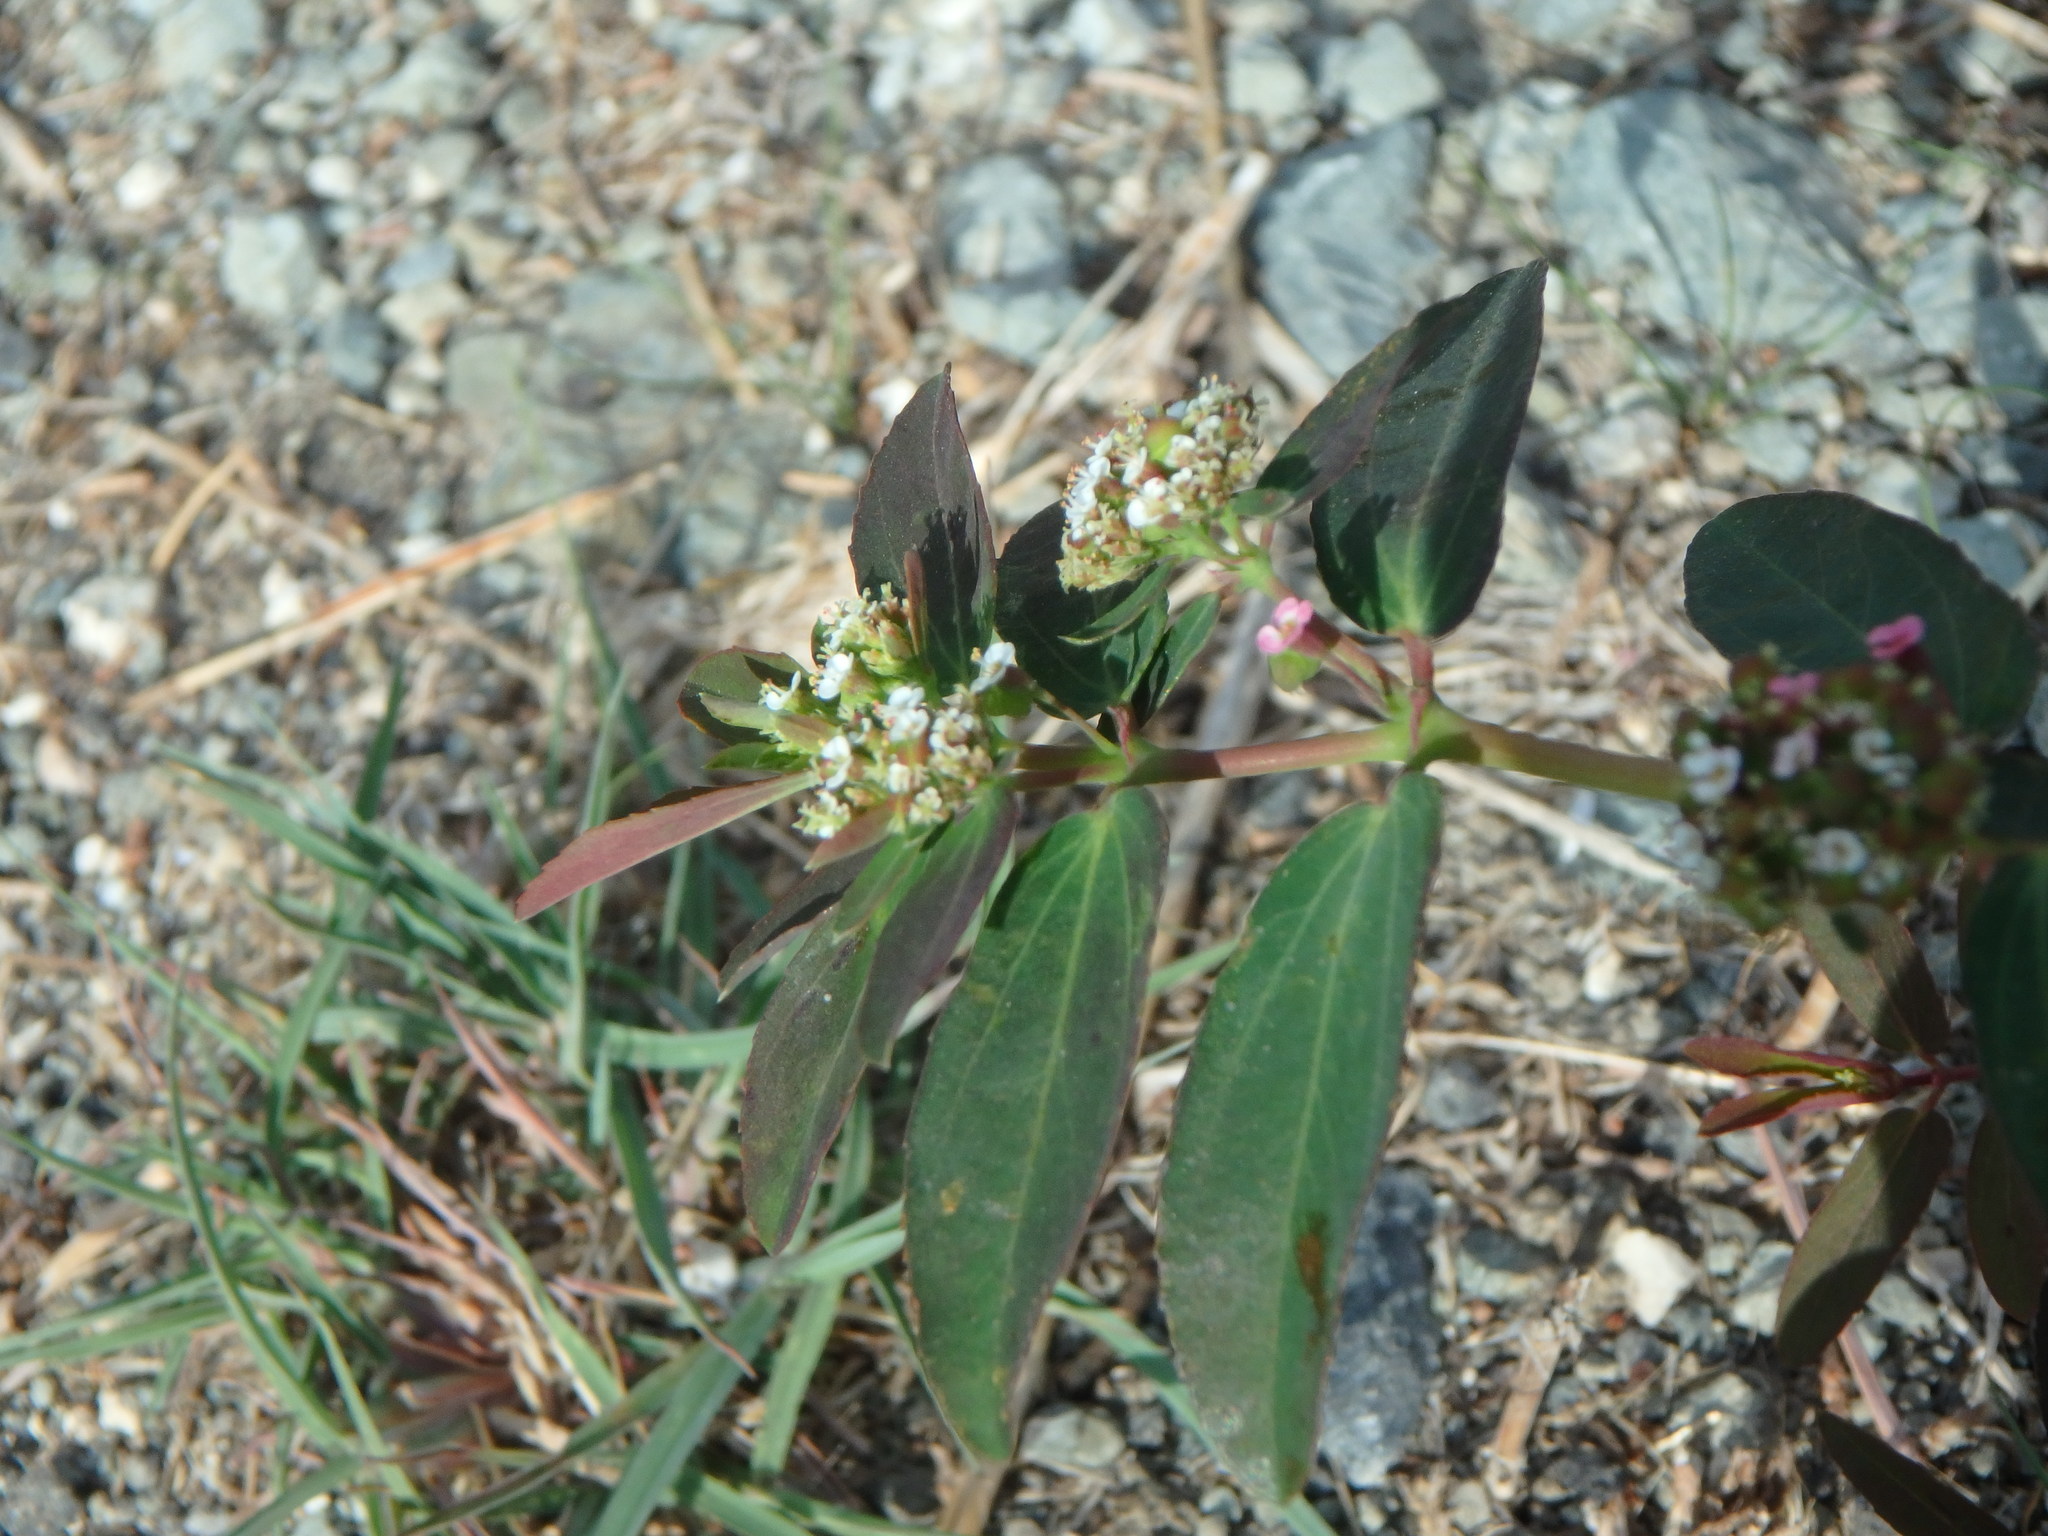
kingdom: Plantae
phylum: Tracheophyta
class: Magnoliopsida
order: Malpighiales
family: Euphorbiaceae
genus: Euphorbia
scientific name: Euphorbia hypericifolia
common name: Graceful sandmat
